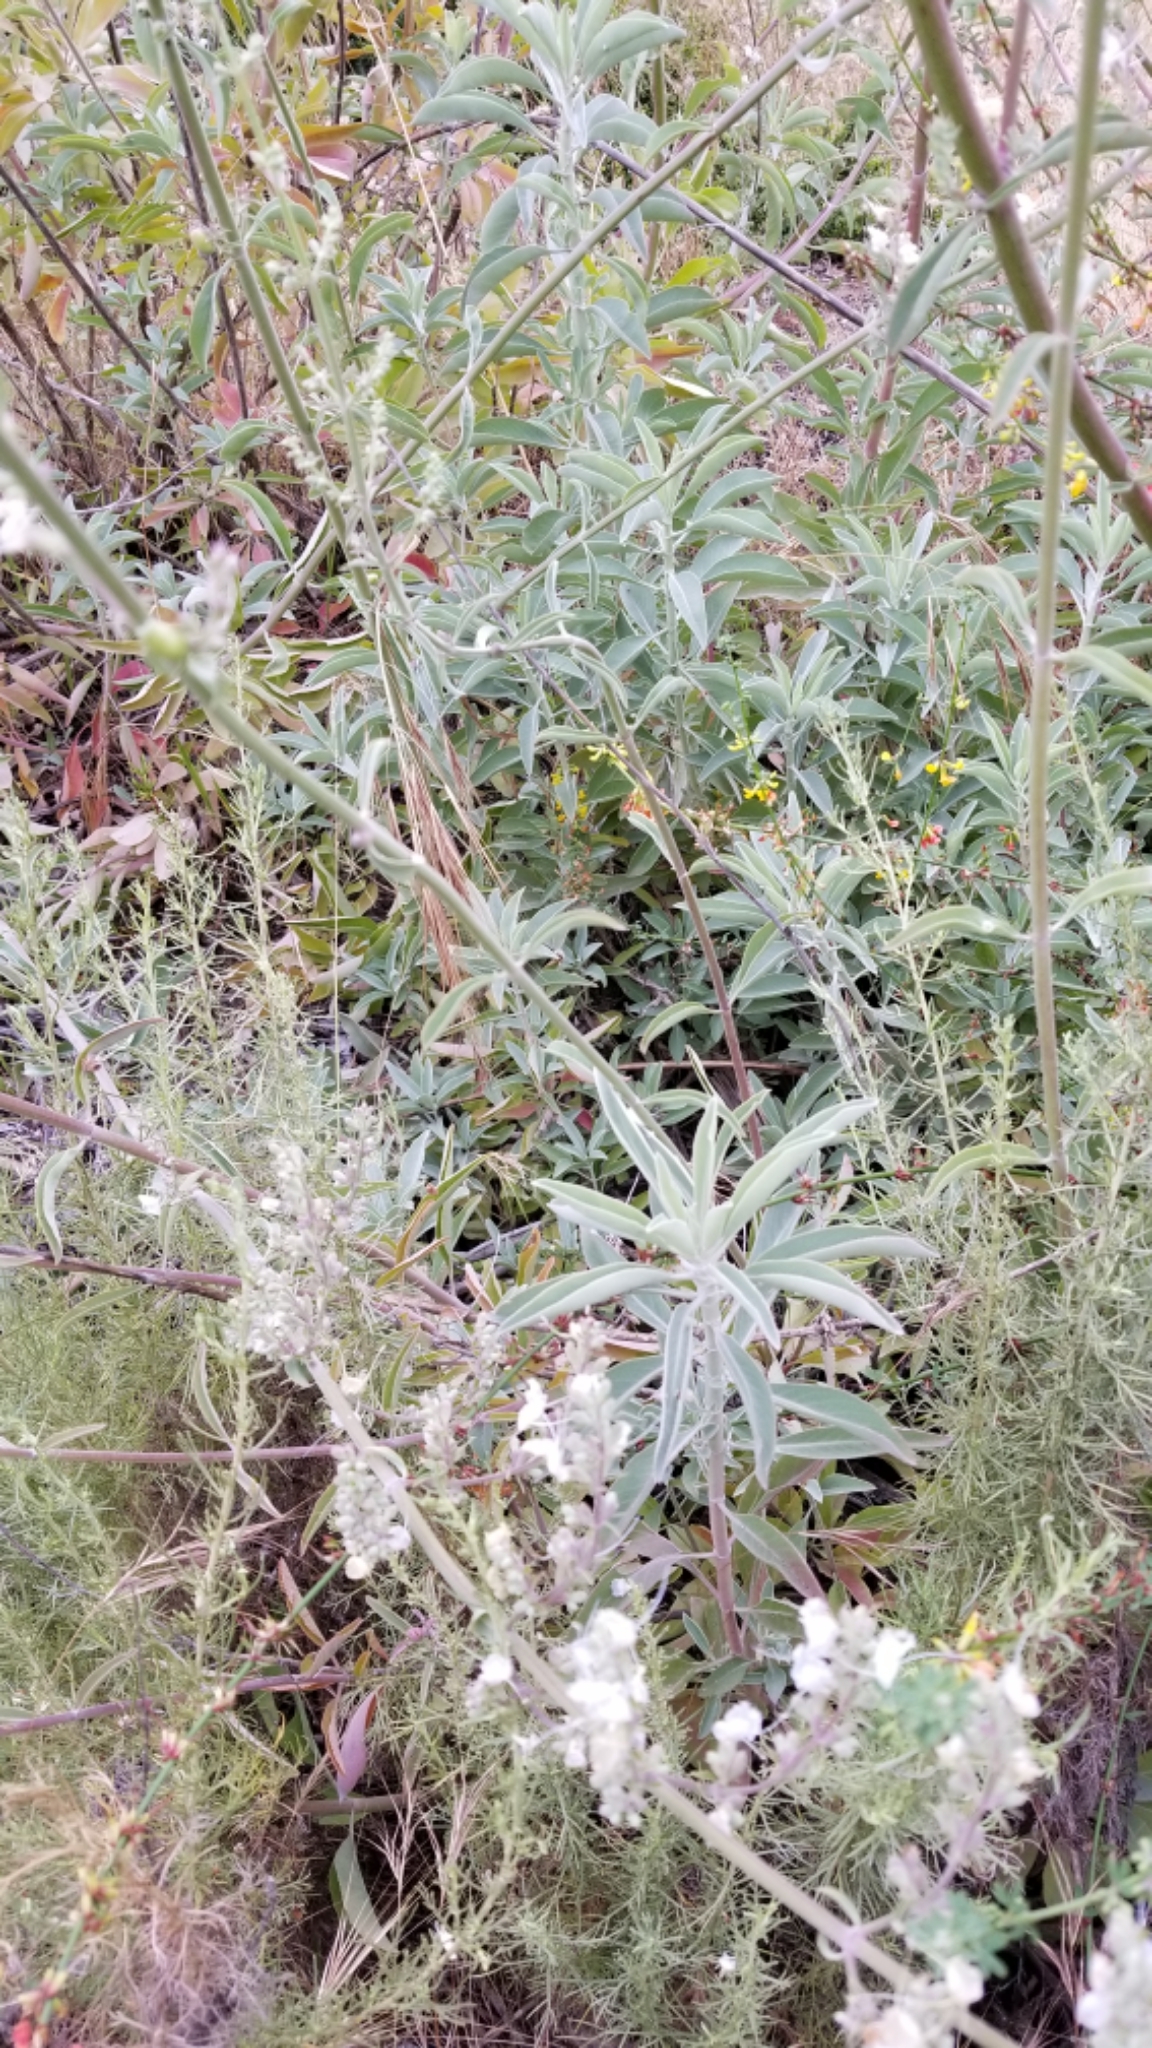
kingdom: Plantae
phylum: Tracheophyta
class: Magnoliopsida
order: Lamiales
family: Lamiaceae
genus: Salvia
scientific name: Salvia apiana
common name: White sage
